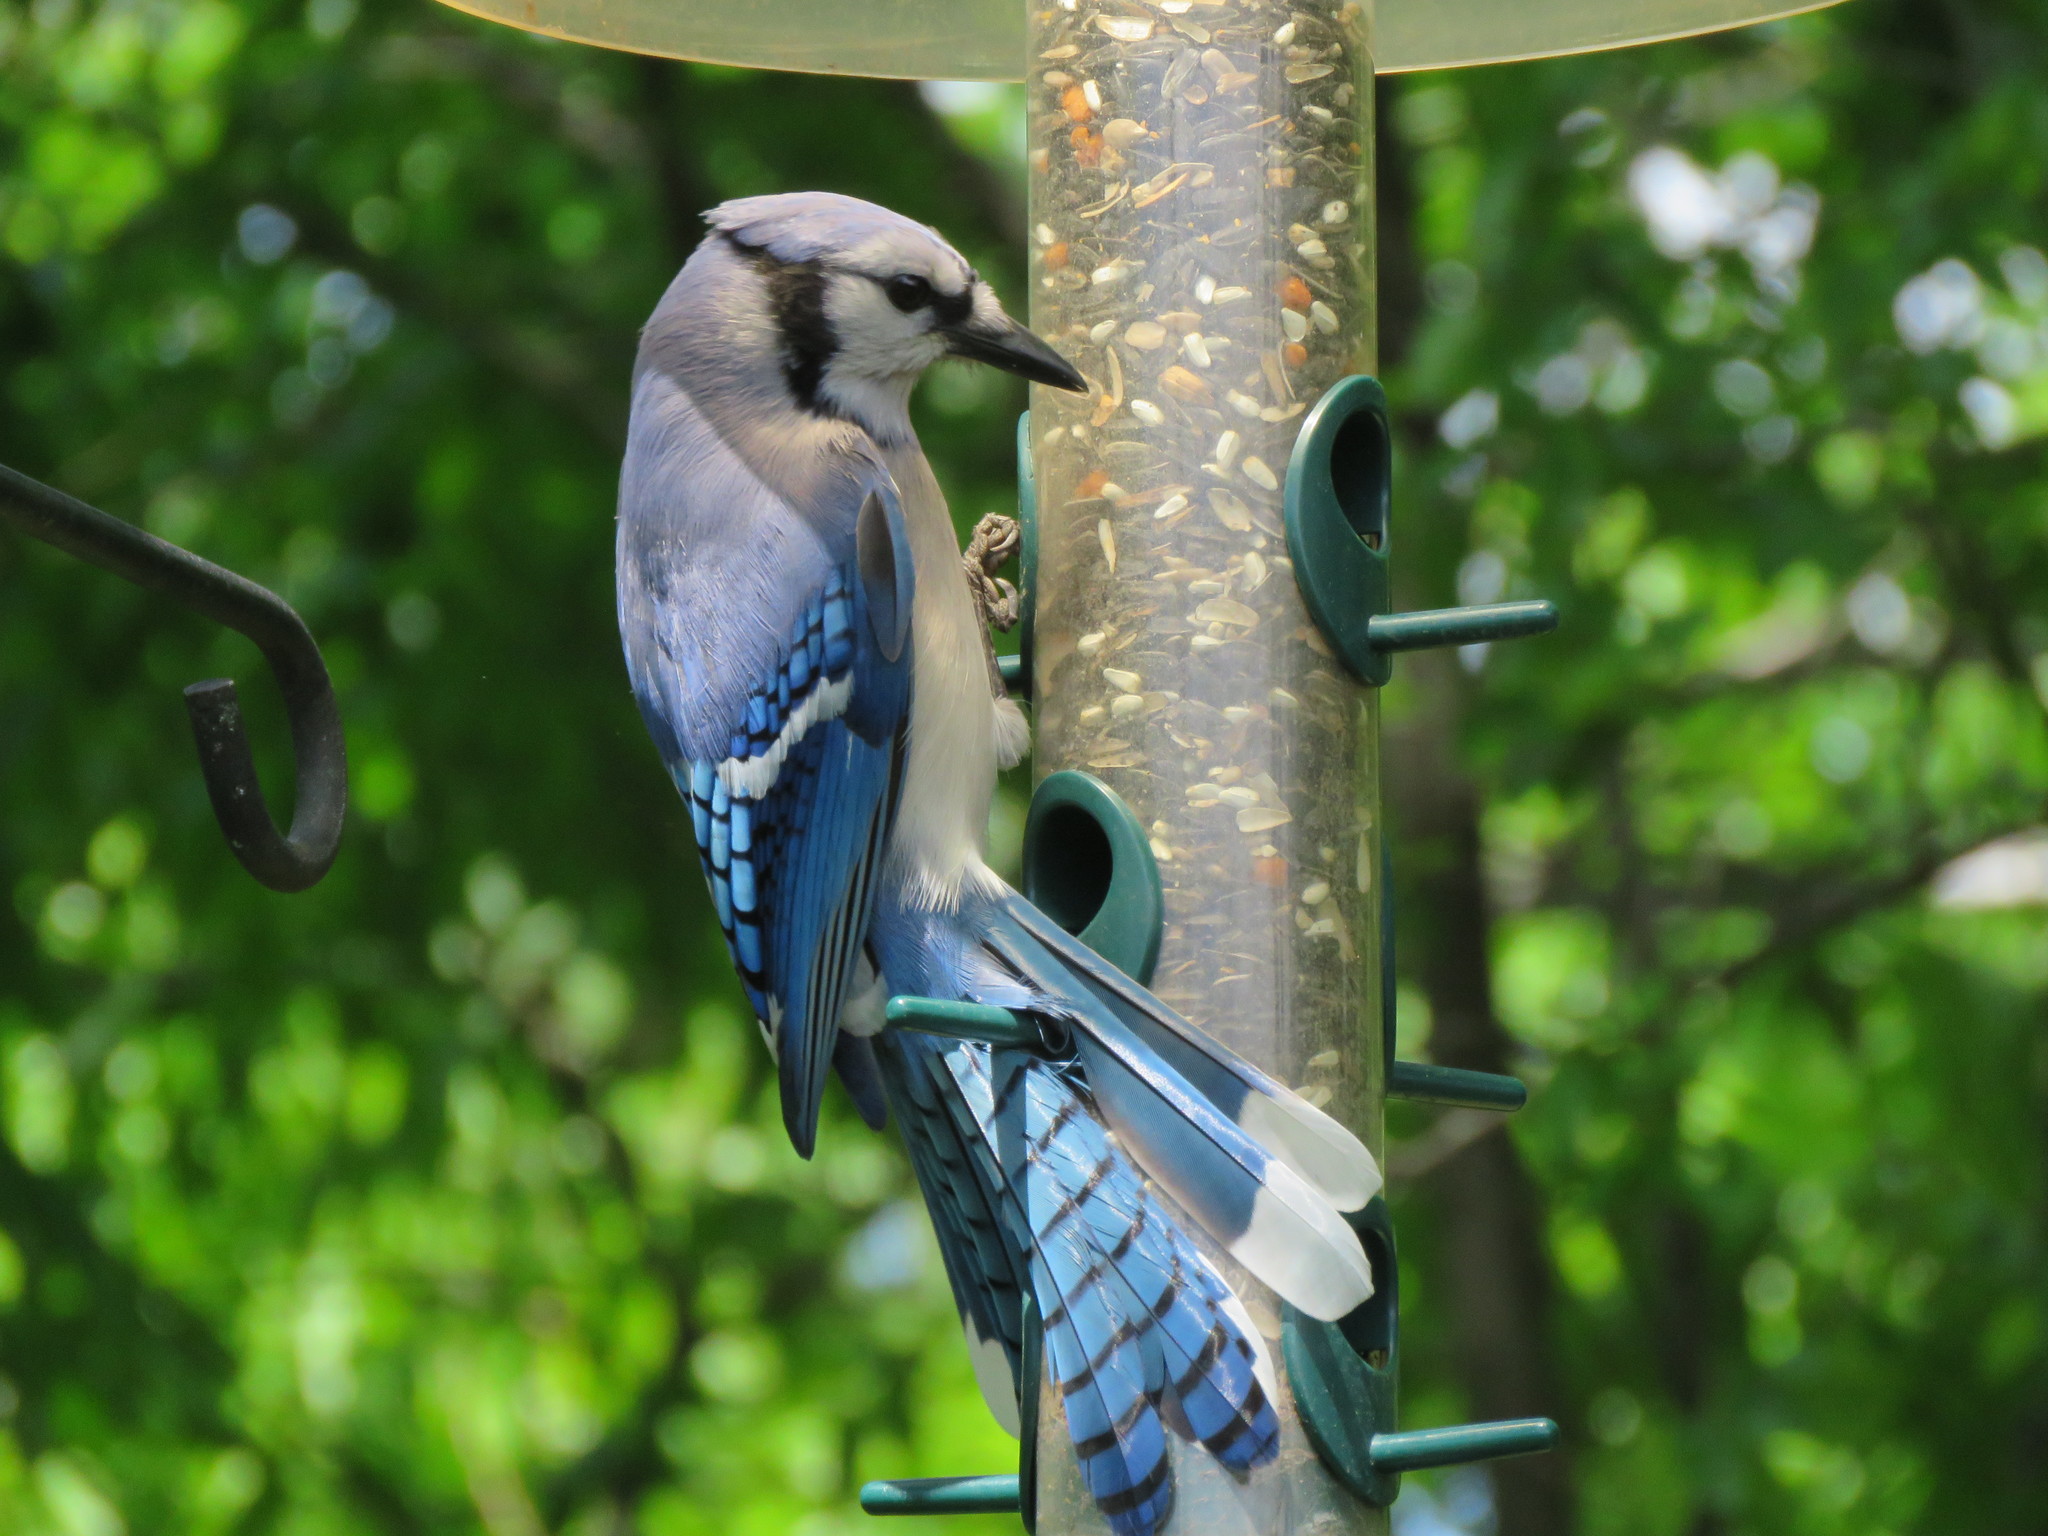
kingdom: Animalia
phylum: Chordata
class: Aves
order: Passeriformes
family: Corvidae
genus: Cyanocitta
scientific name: Cyanocitta cristata
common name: Blue jay
